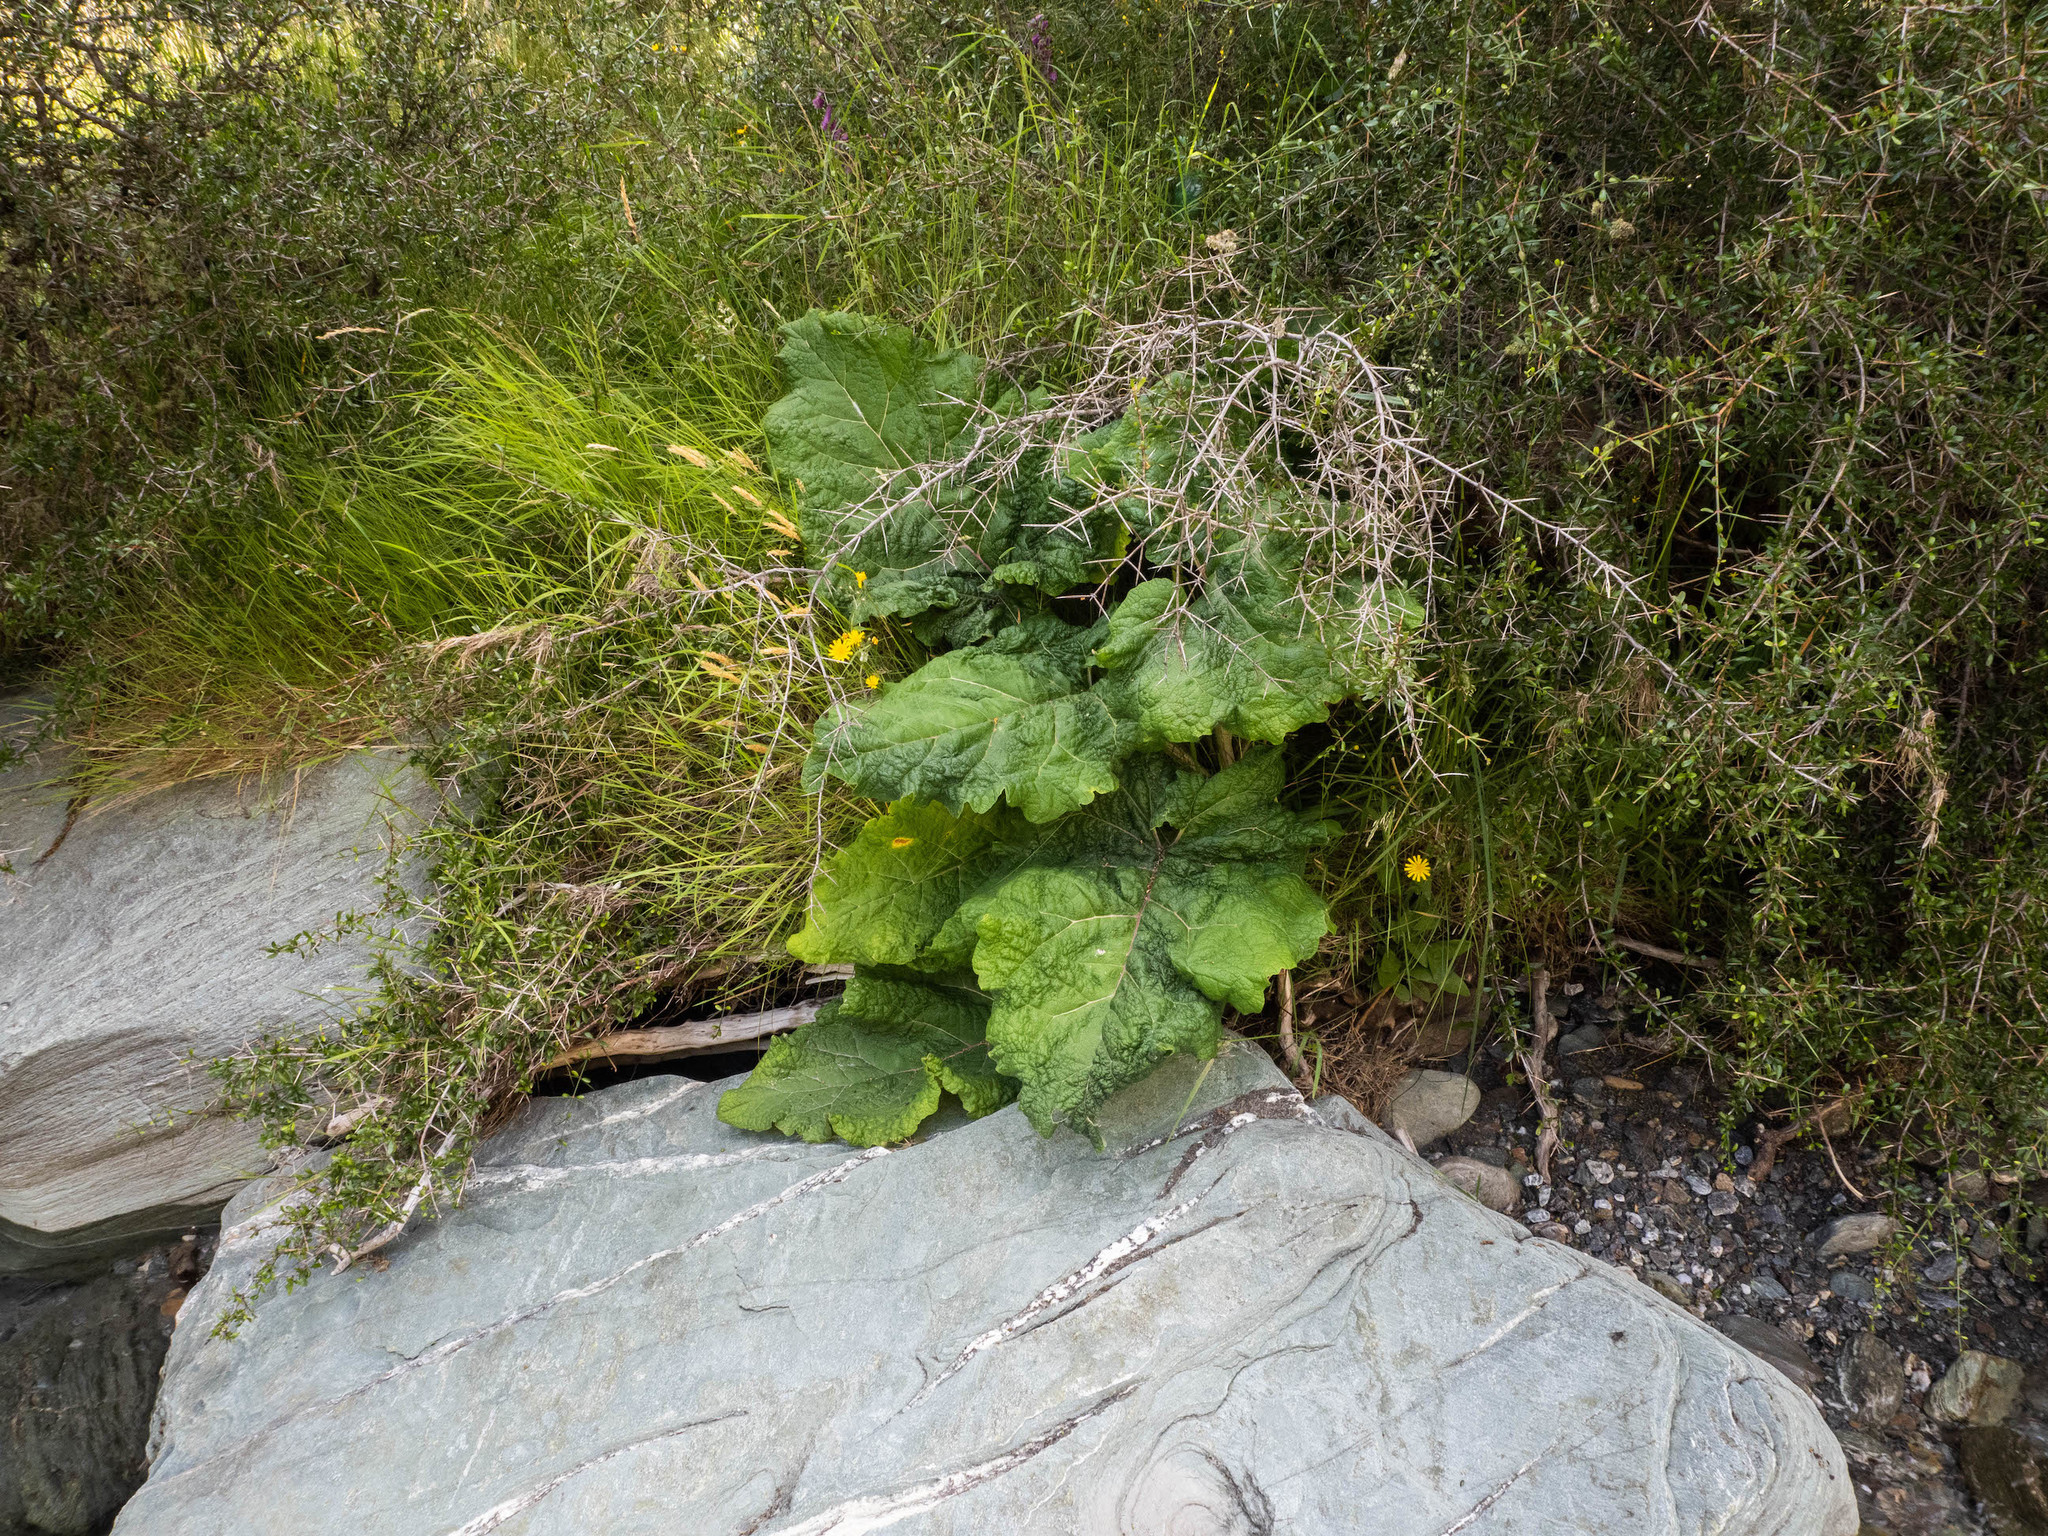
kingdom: Plantae
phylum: Tracheophyta
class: Magnoliopsida
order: Asterales
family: Asteraceae
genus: Arctium
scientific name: Arctium minus
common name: Lesser burdock
